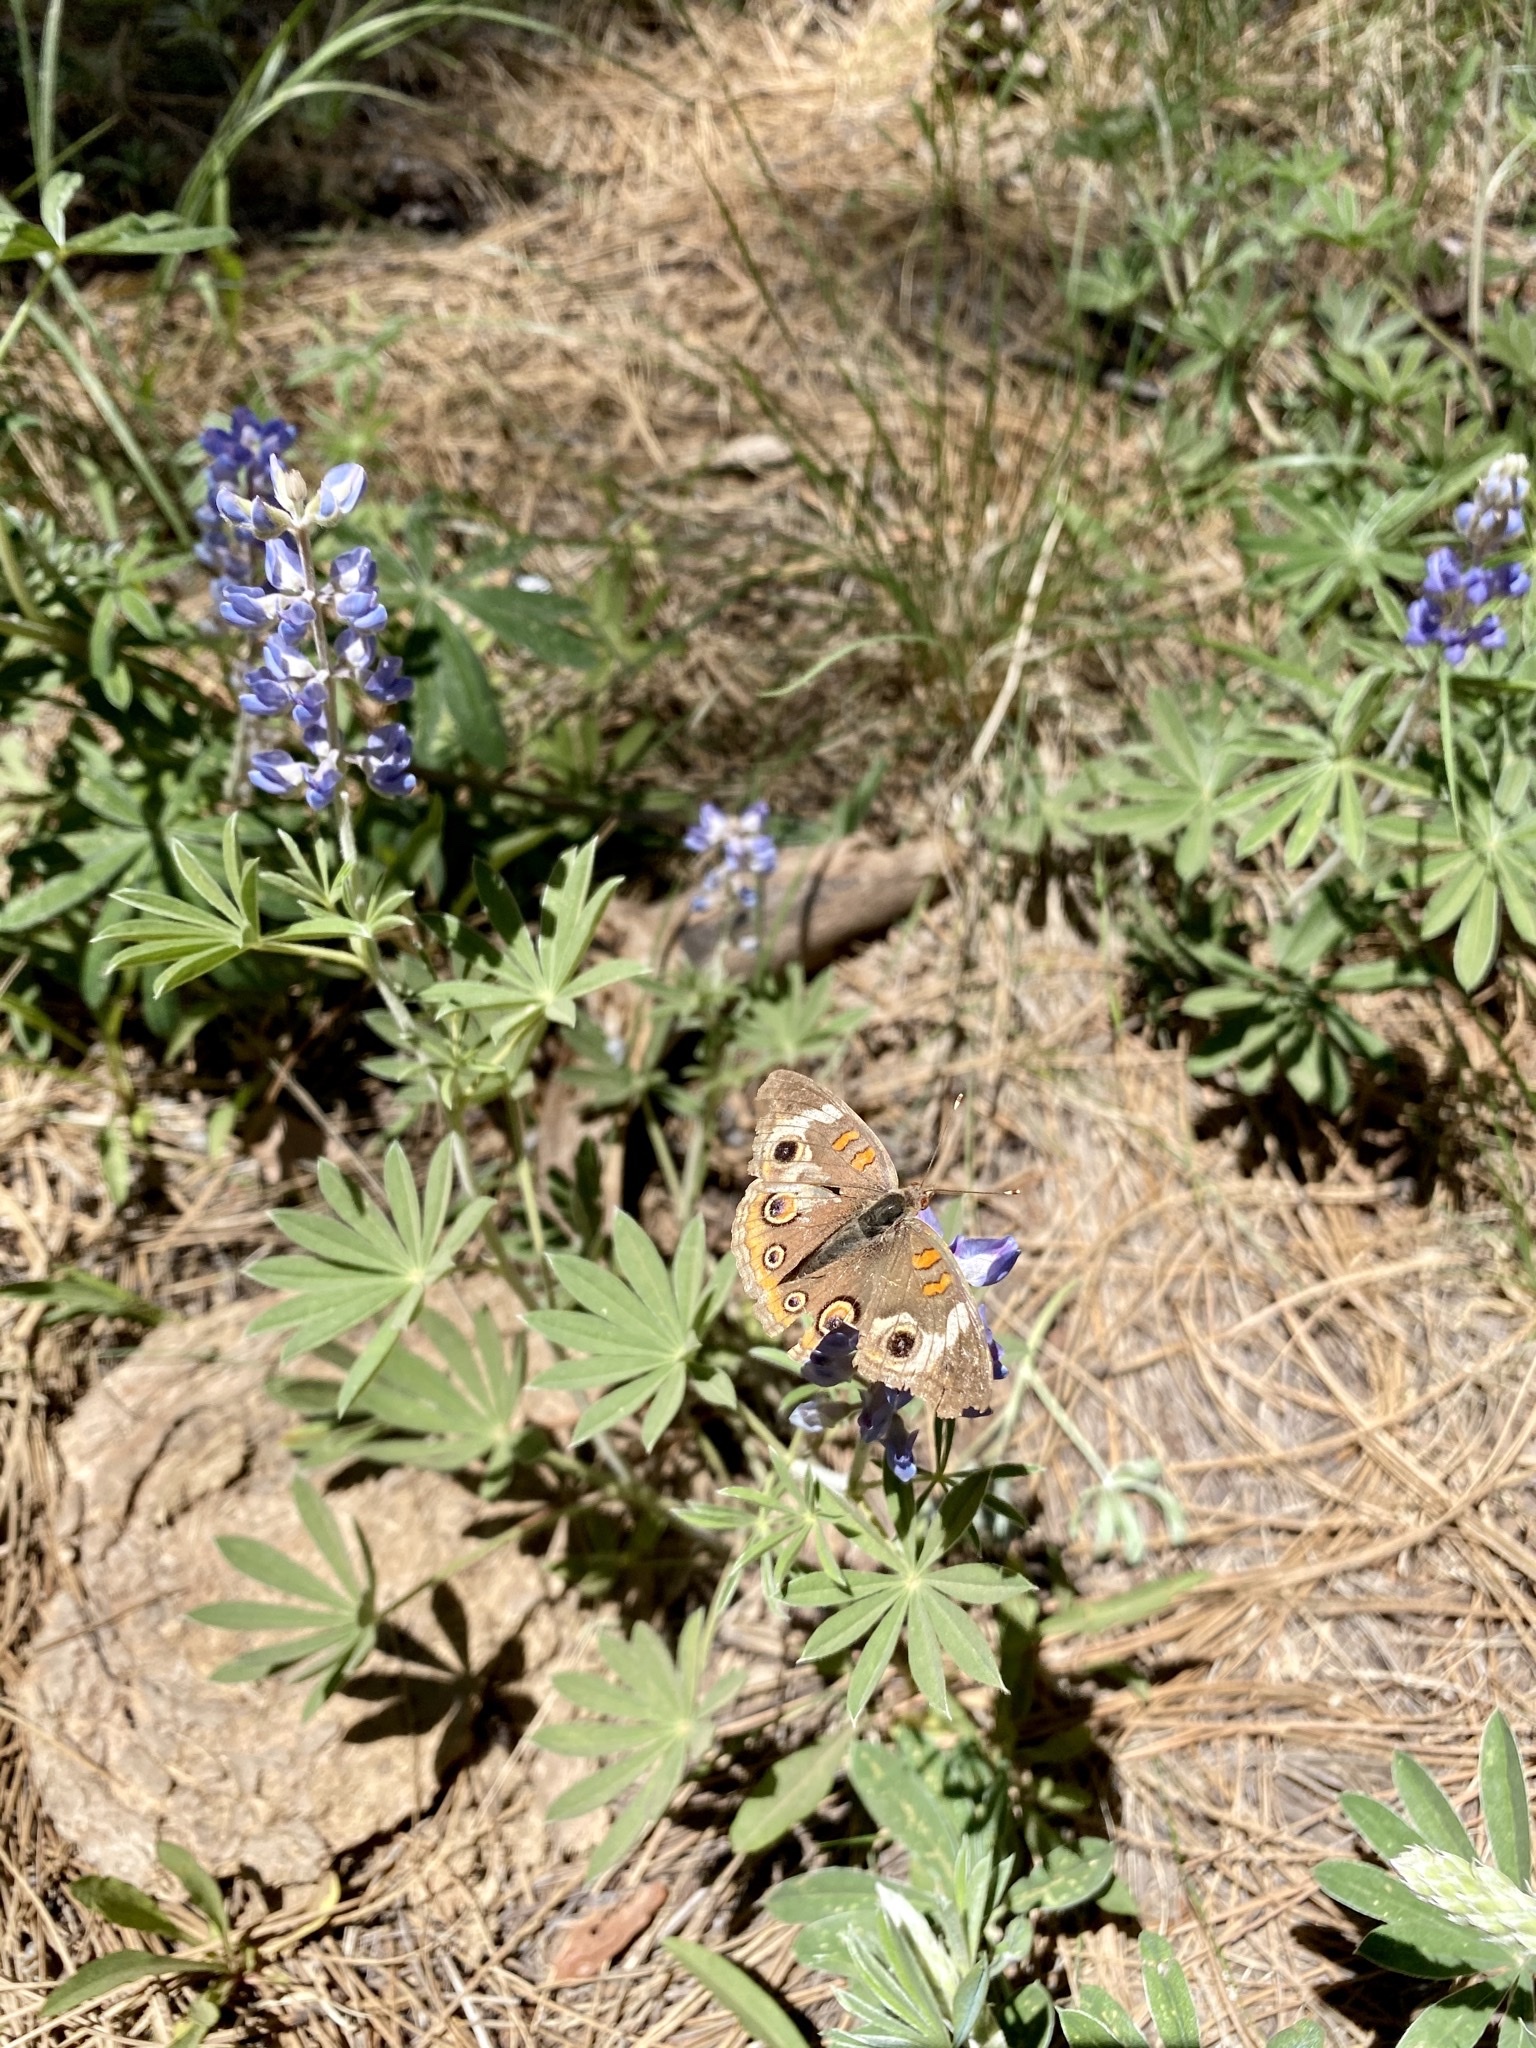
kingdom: Animalia
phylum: Arthropoda
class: Insecta
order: Lepidoptera
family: Nymphalidae
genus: Junonia
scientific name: Junonia grisea
